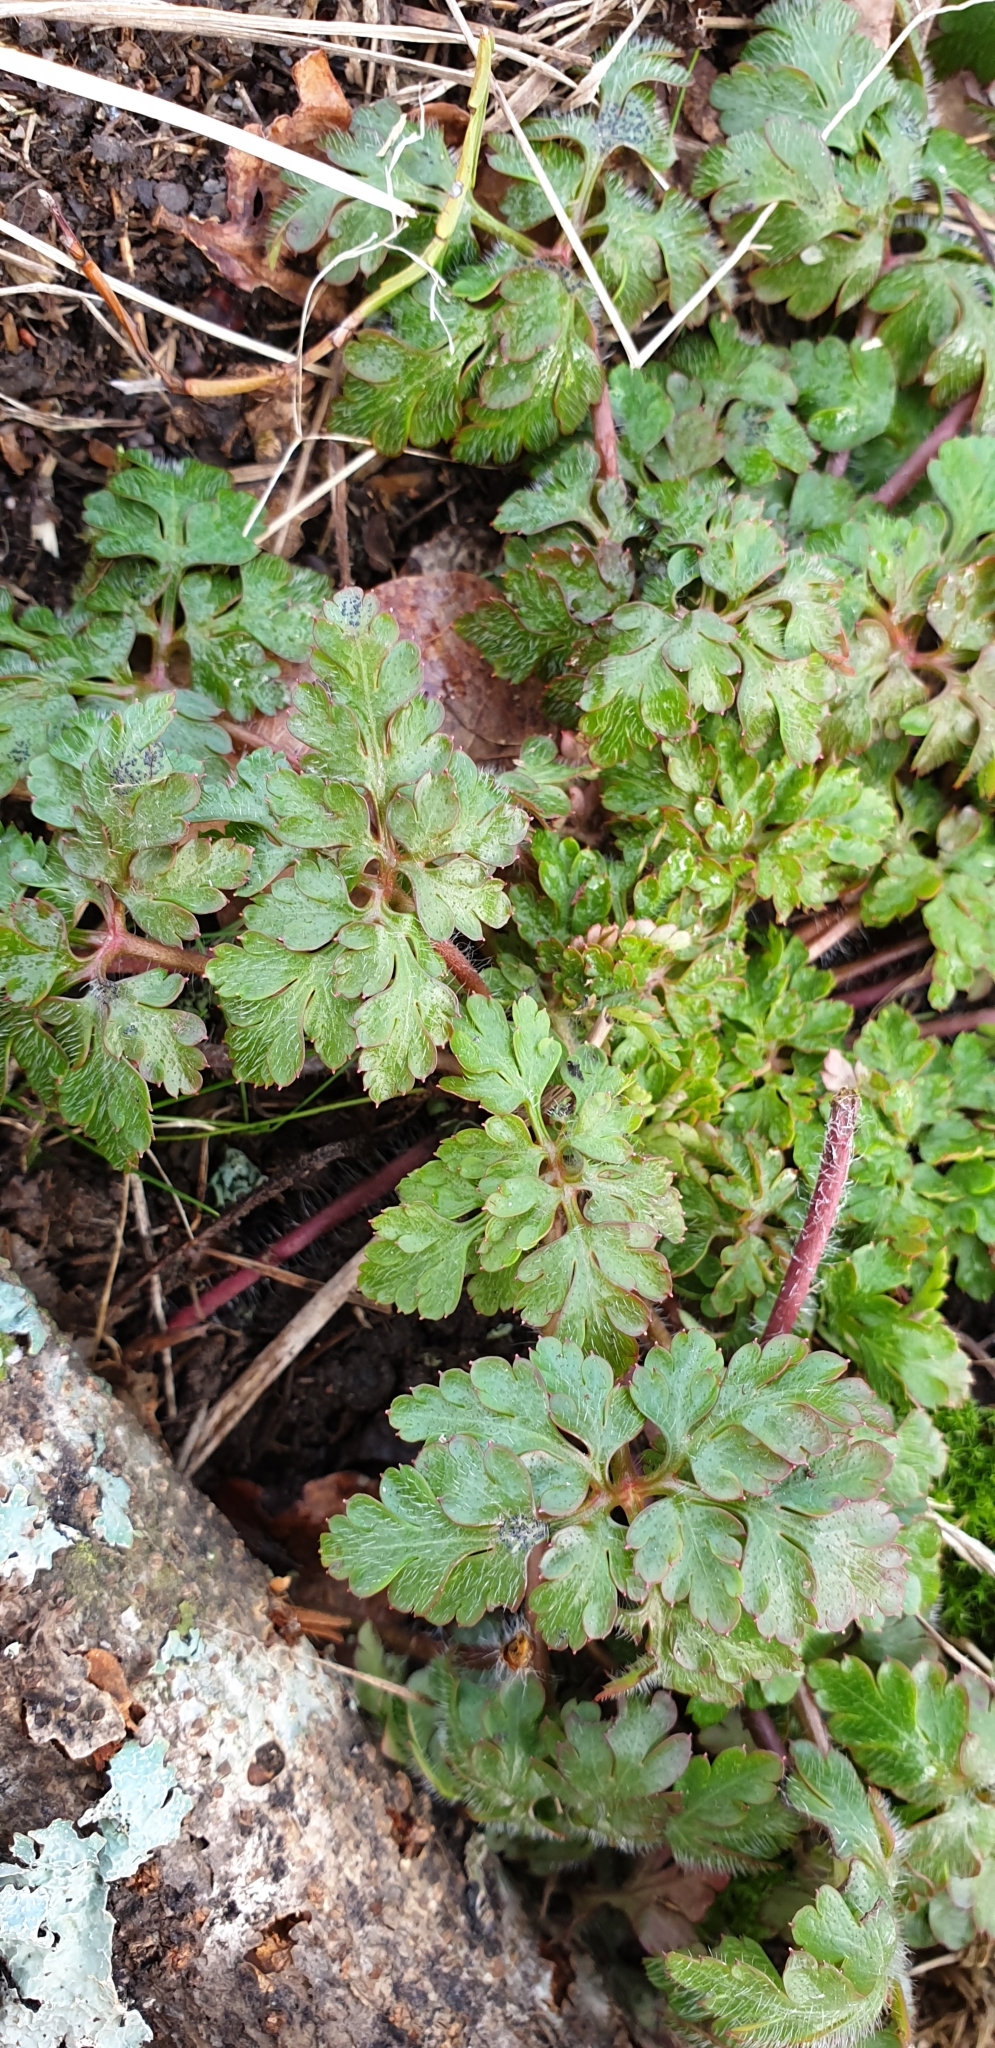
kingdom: Plantae
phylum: Tracheophyta
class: Magnoliopsida
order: Geraniales
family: Geraniaceae
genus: Geranium
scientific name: Geranium robertianum
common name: Herb-robert
